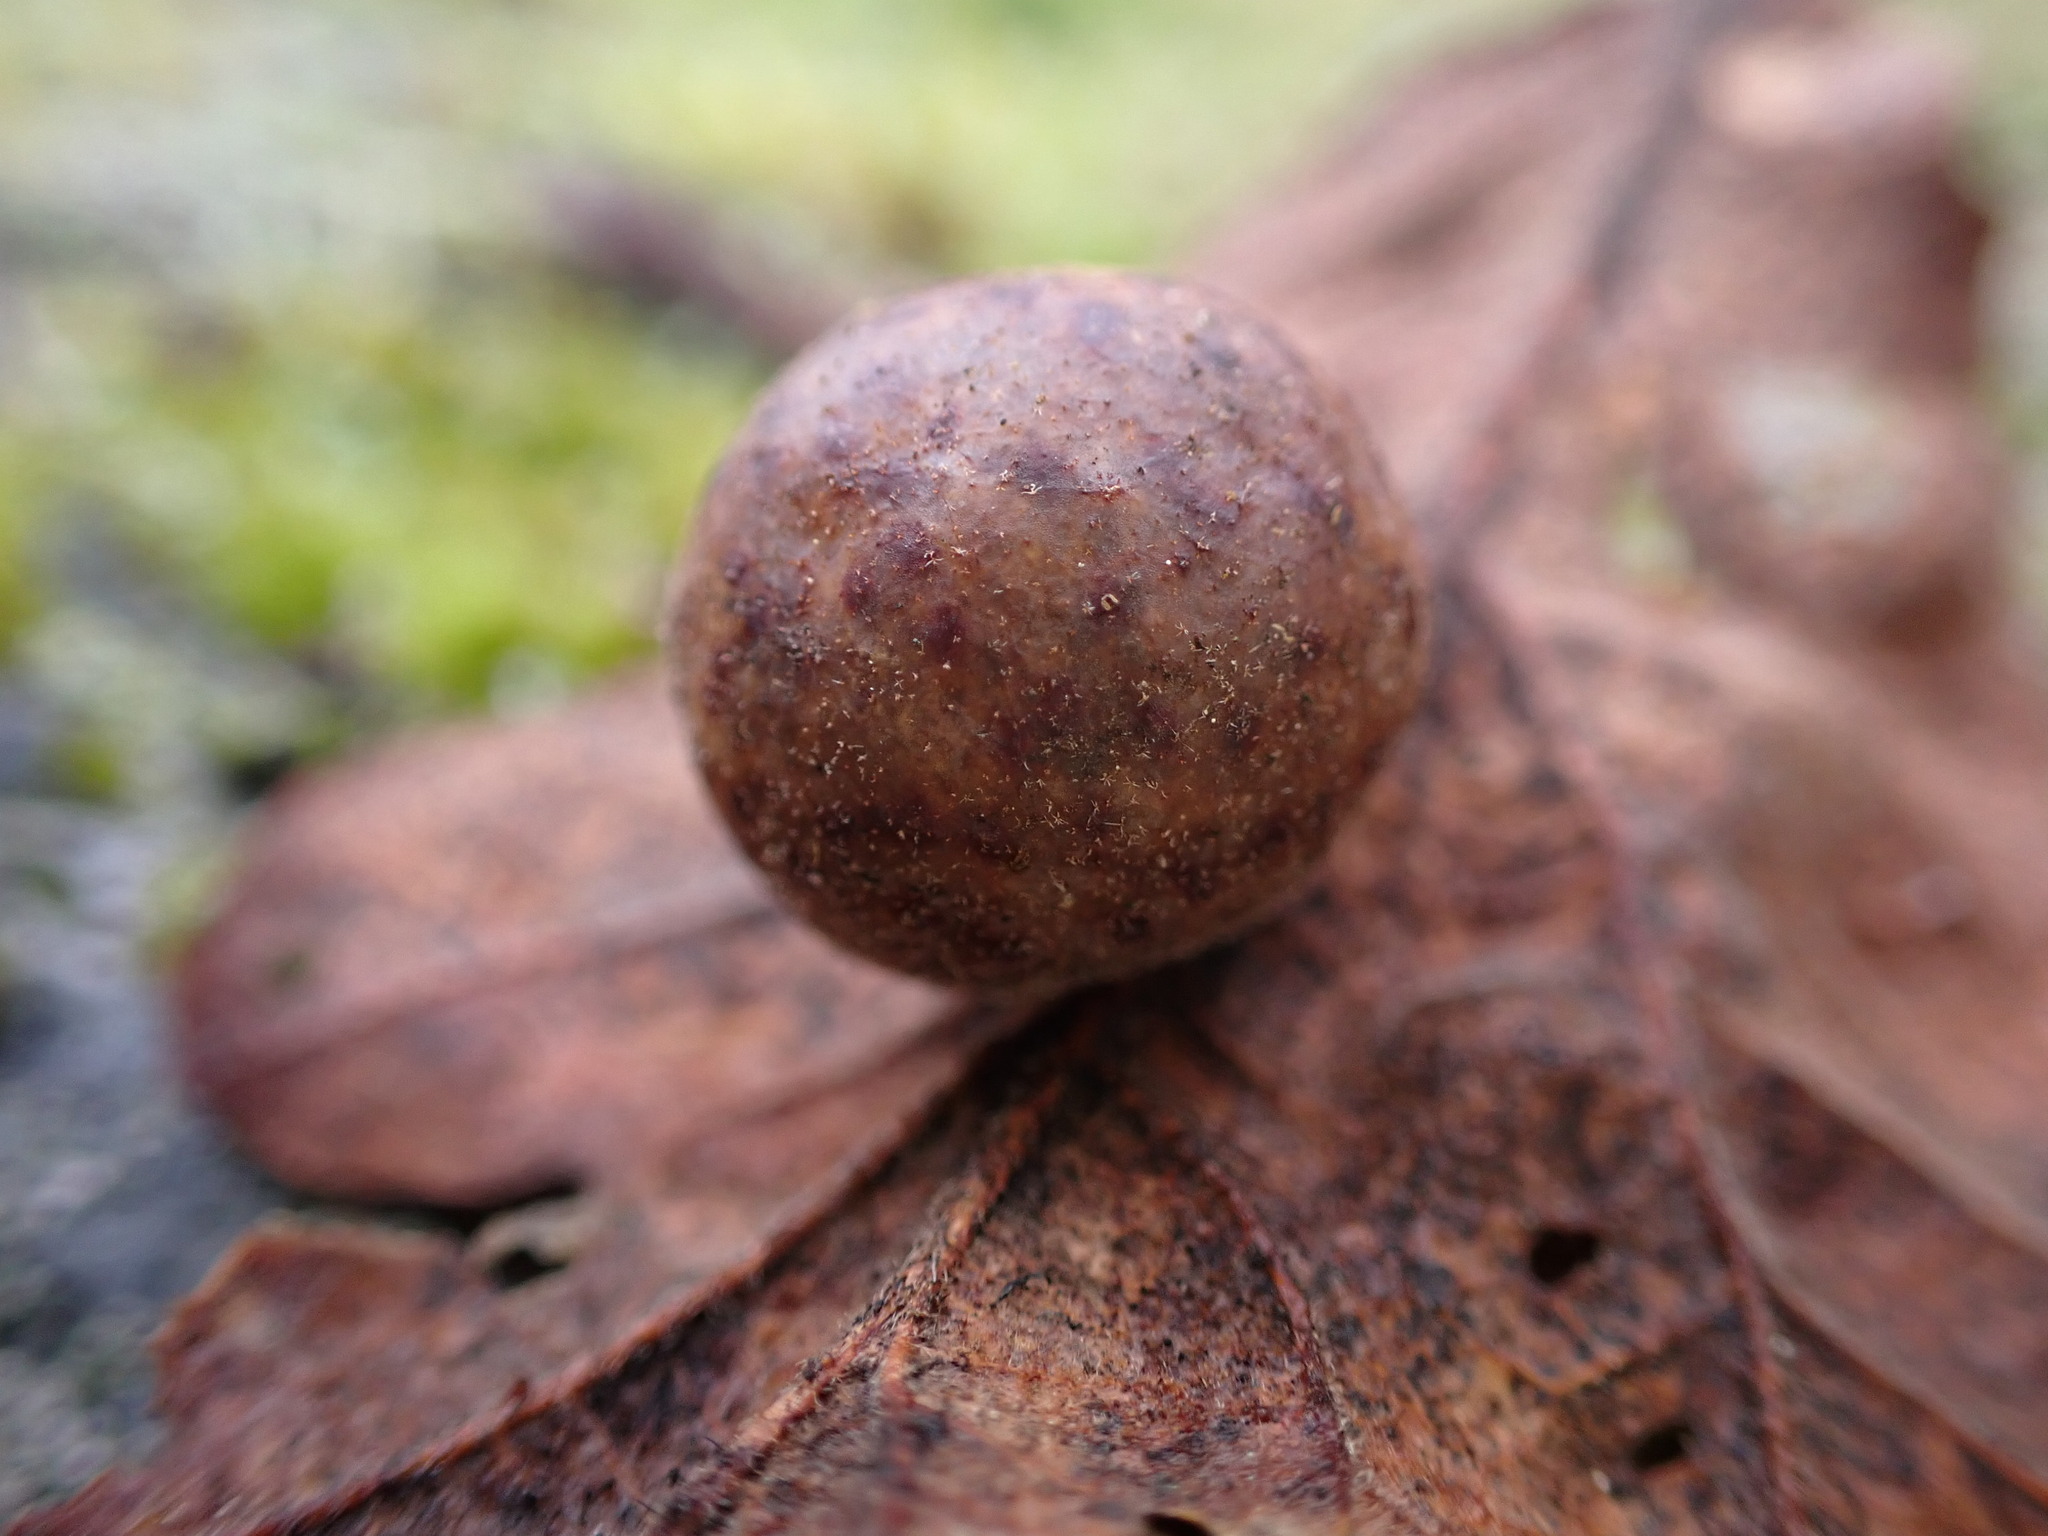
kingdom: Animalia
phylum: Arthropoda
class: Insecta
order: Hymenoptera
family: Cynipidae
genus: Cynips
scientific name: Cynips
